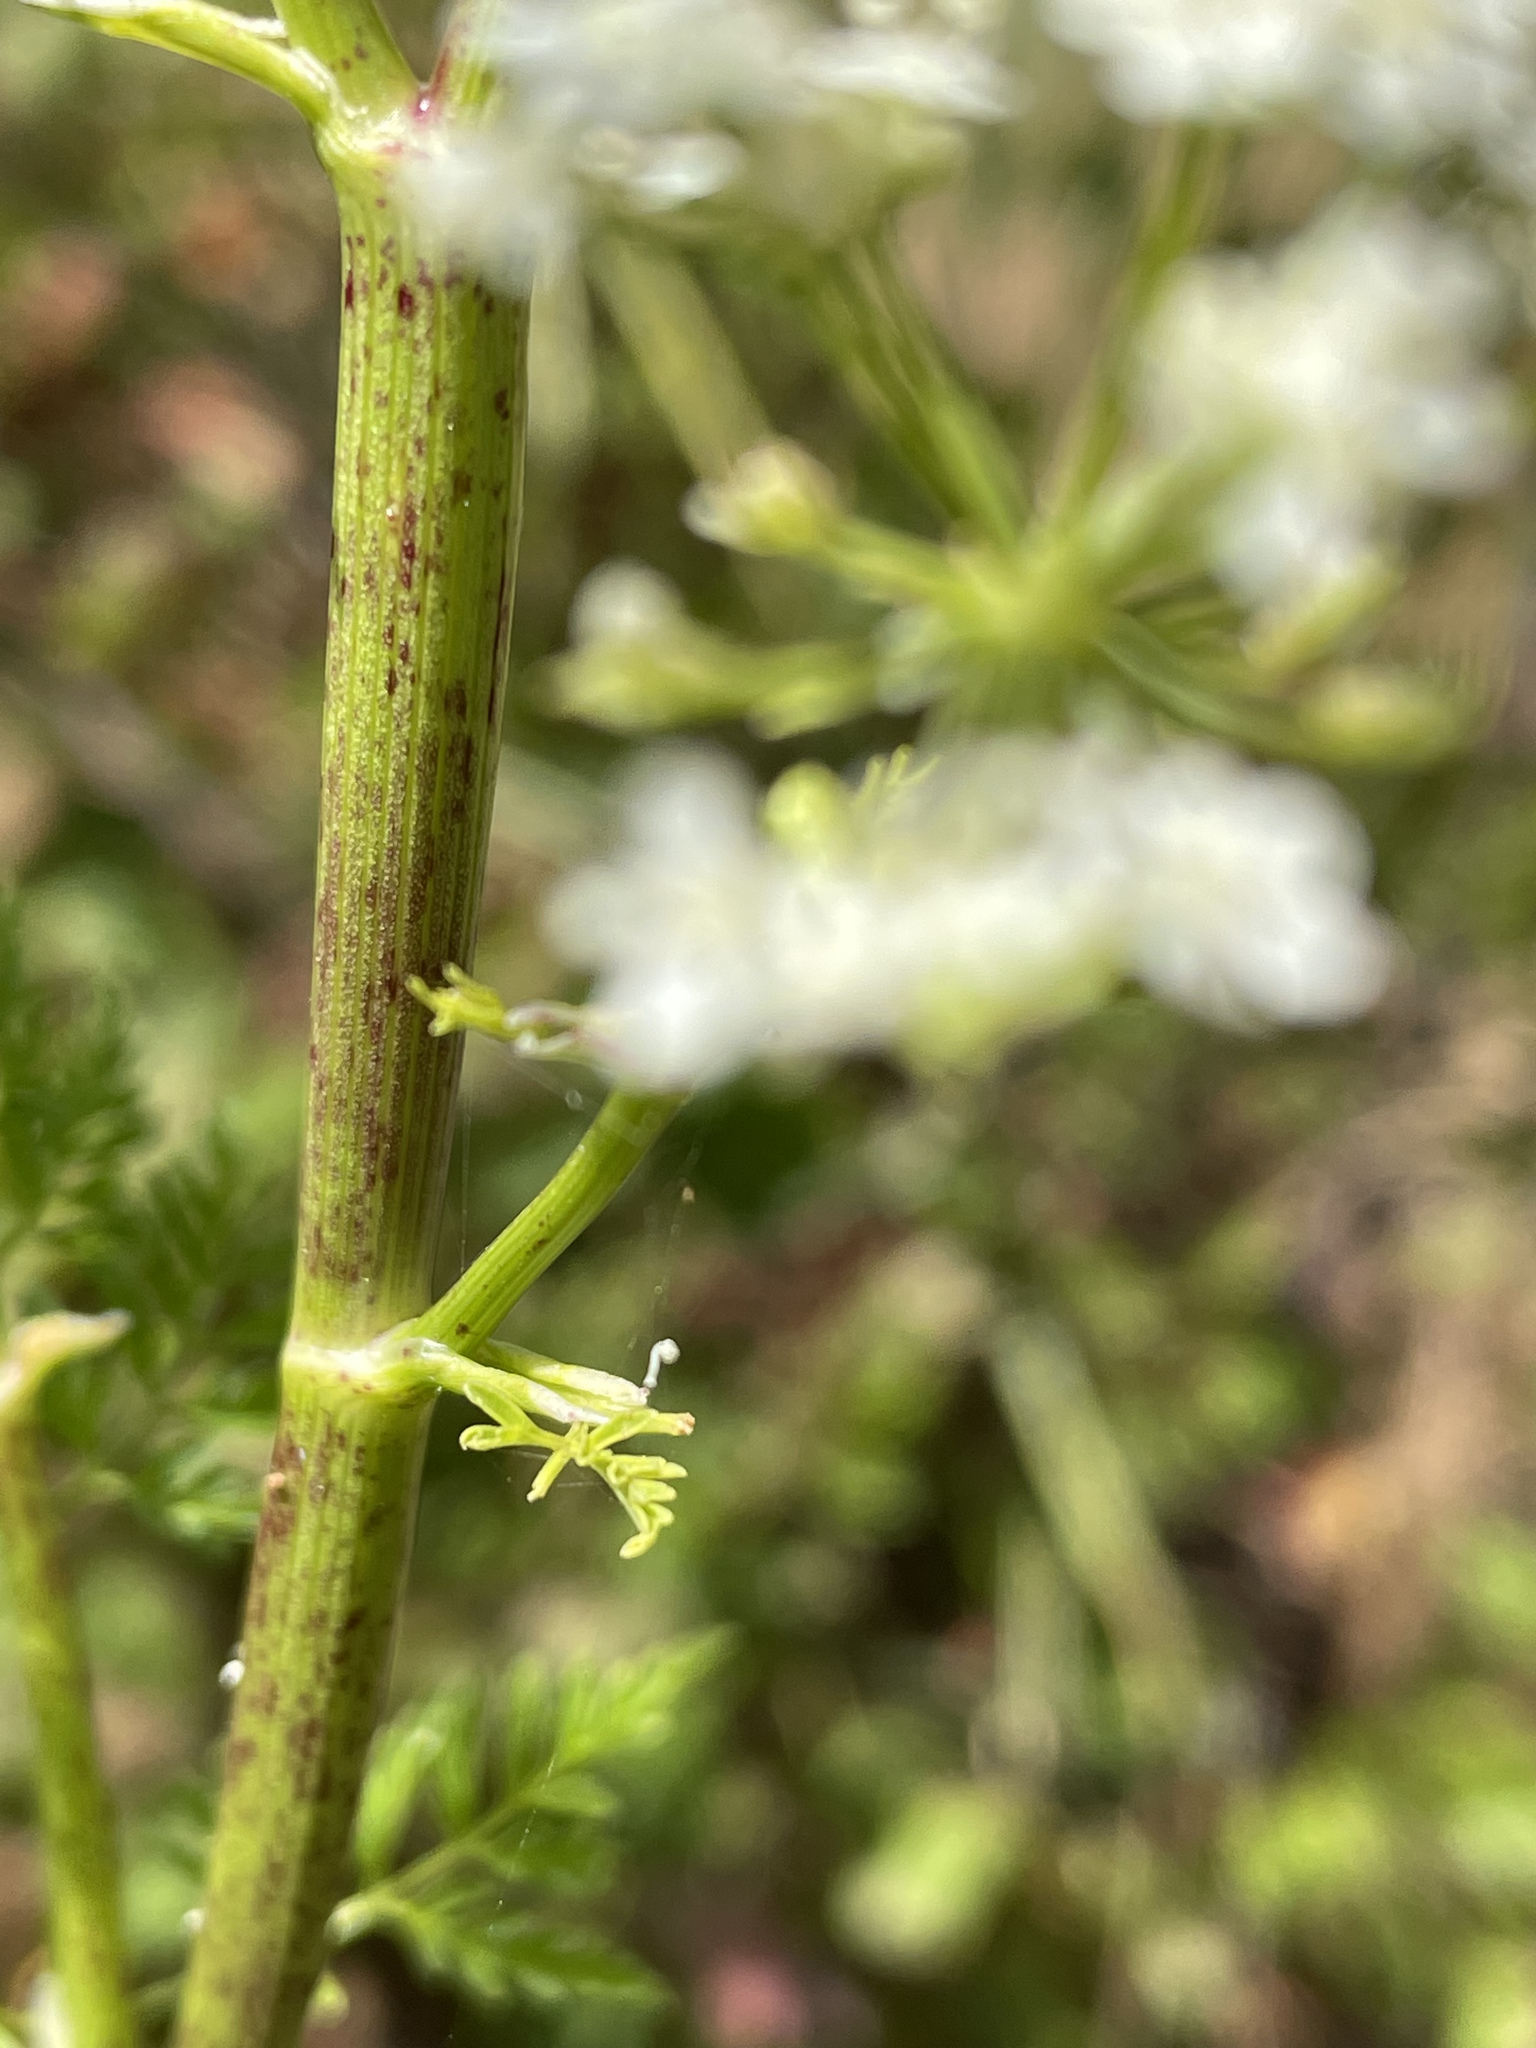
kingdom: Plantae
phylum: Tracheophyta
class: Magnoliopsida
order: Apiales
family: Apiaceae
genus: Conium
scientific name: Conium maculatum
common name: Hemlock
